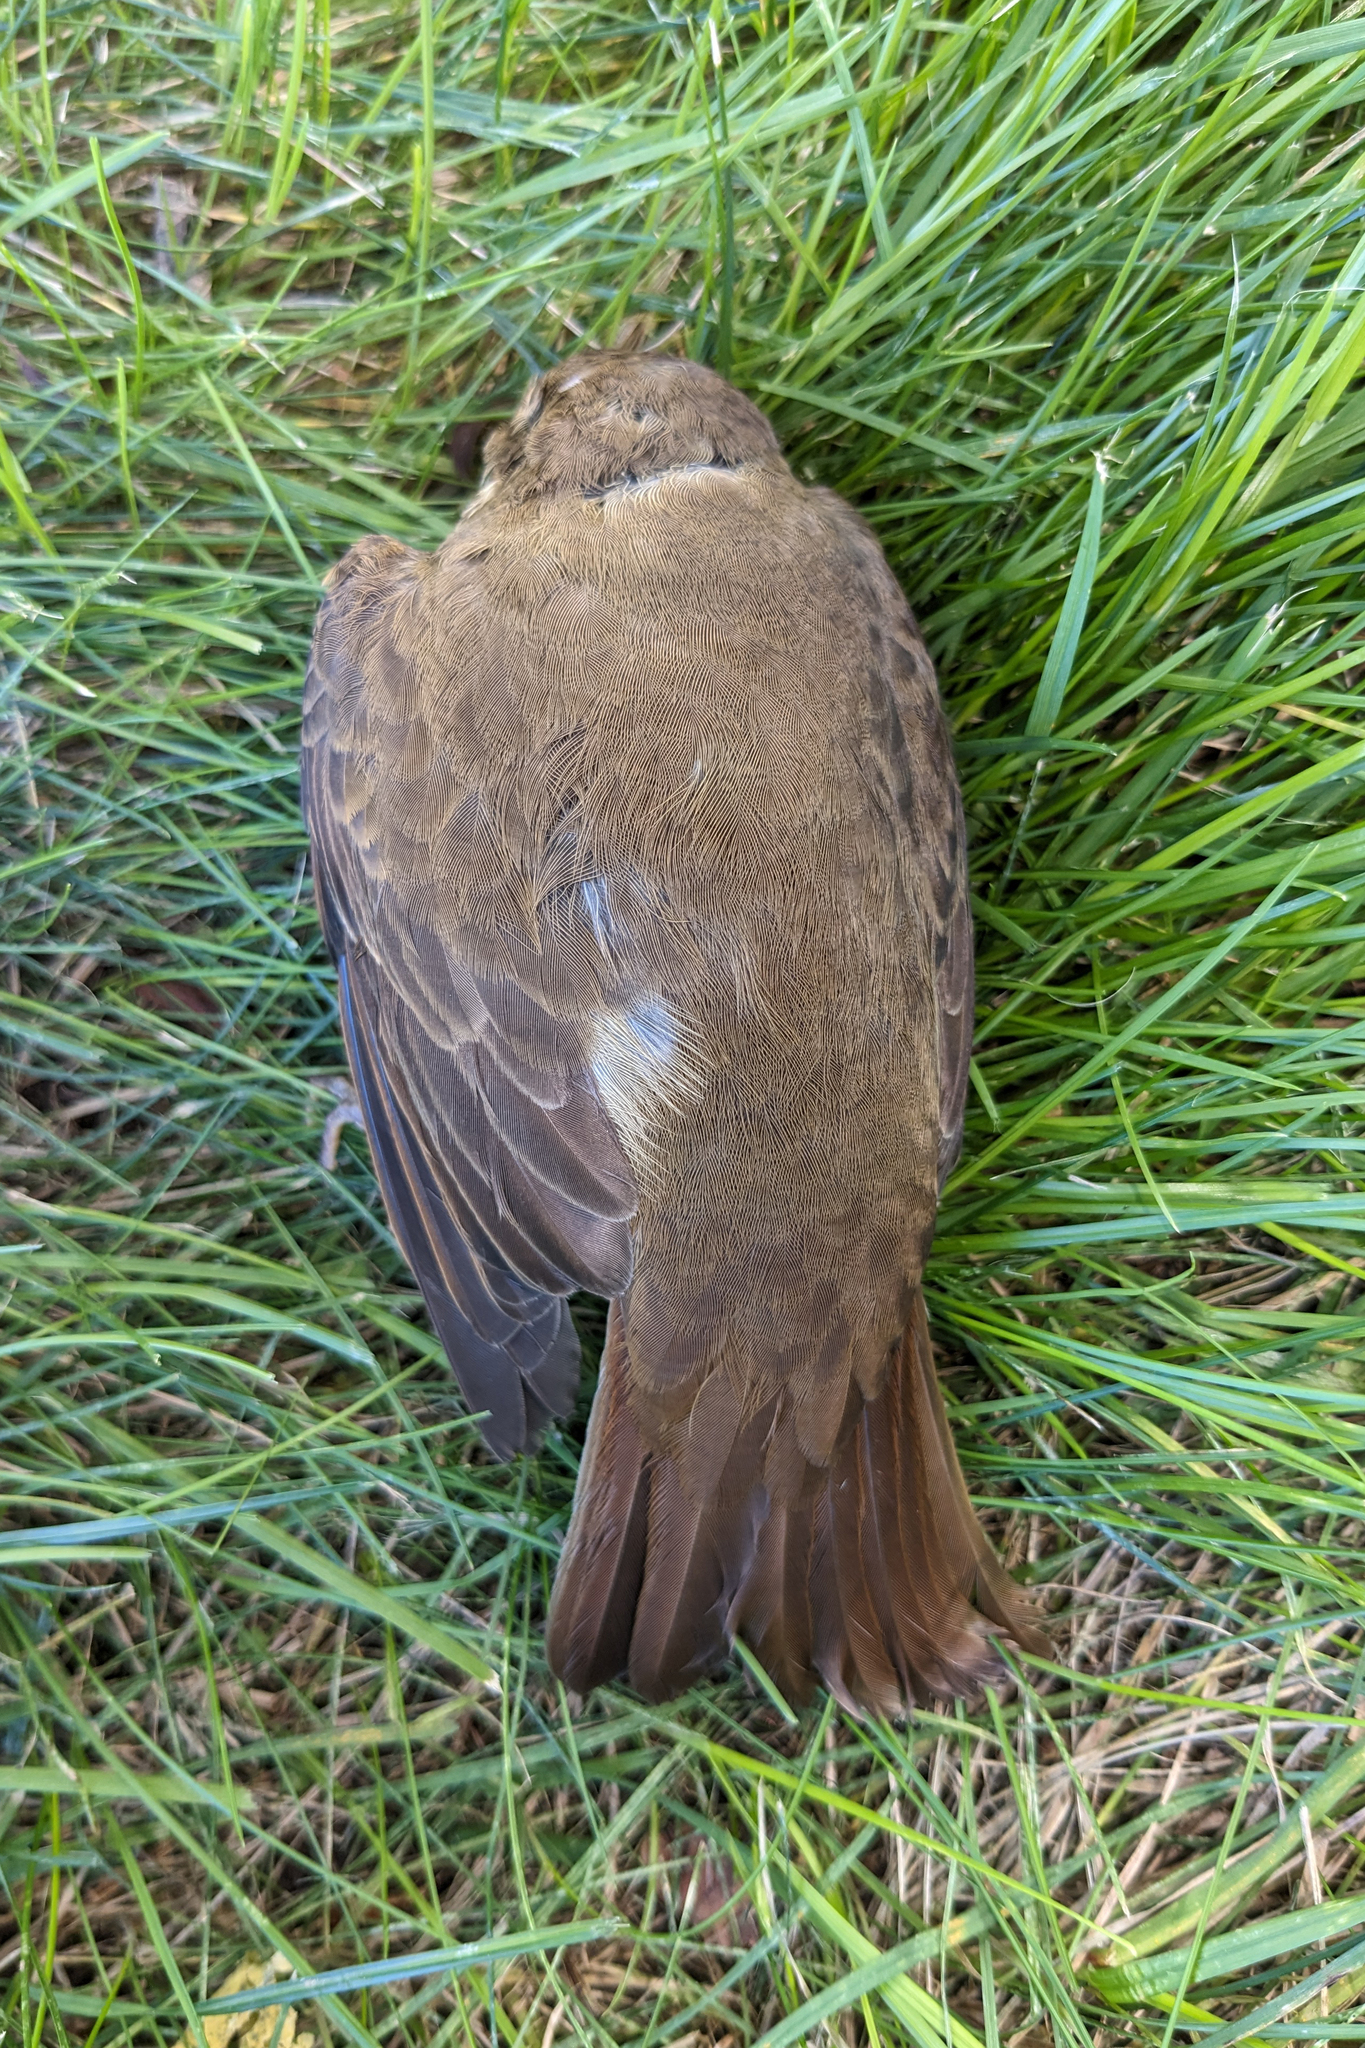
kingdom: Animalia
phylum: Chordata
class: Aves
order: Passeriformes
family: Turdidae
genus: Catharus
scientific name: Catharus guttatus
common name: Hermit thrush
